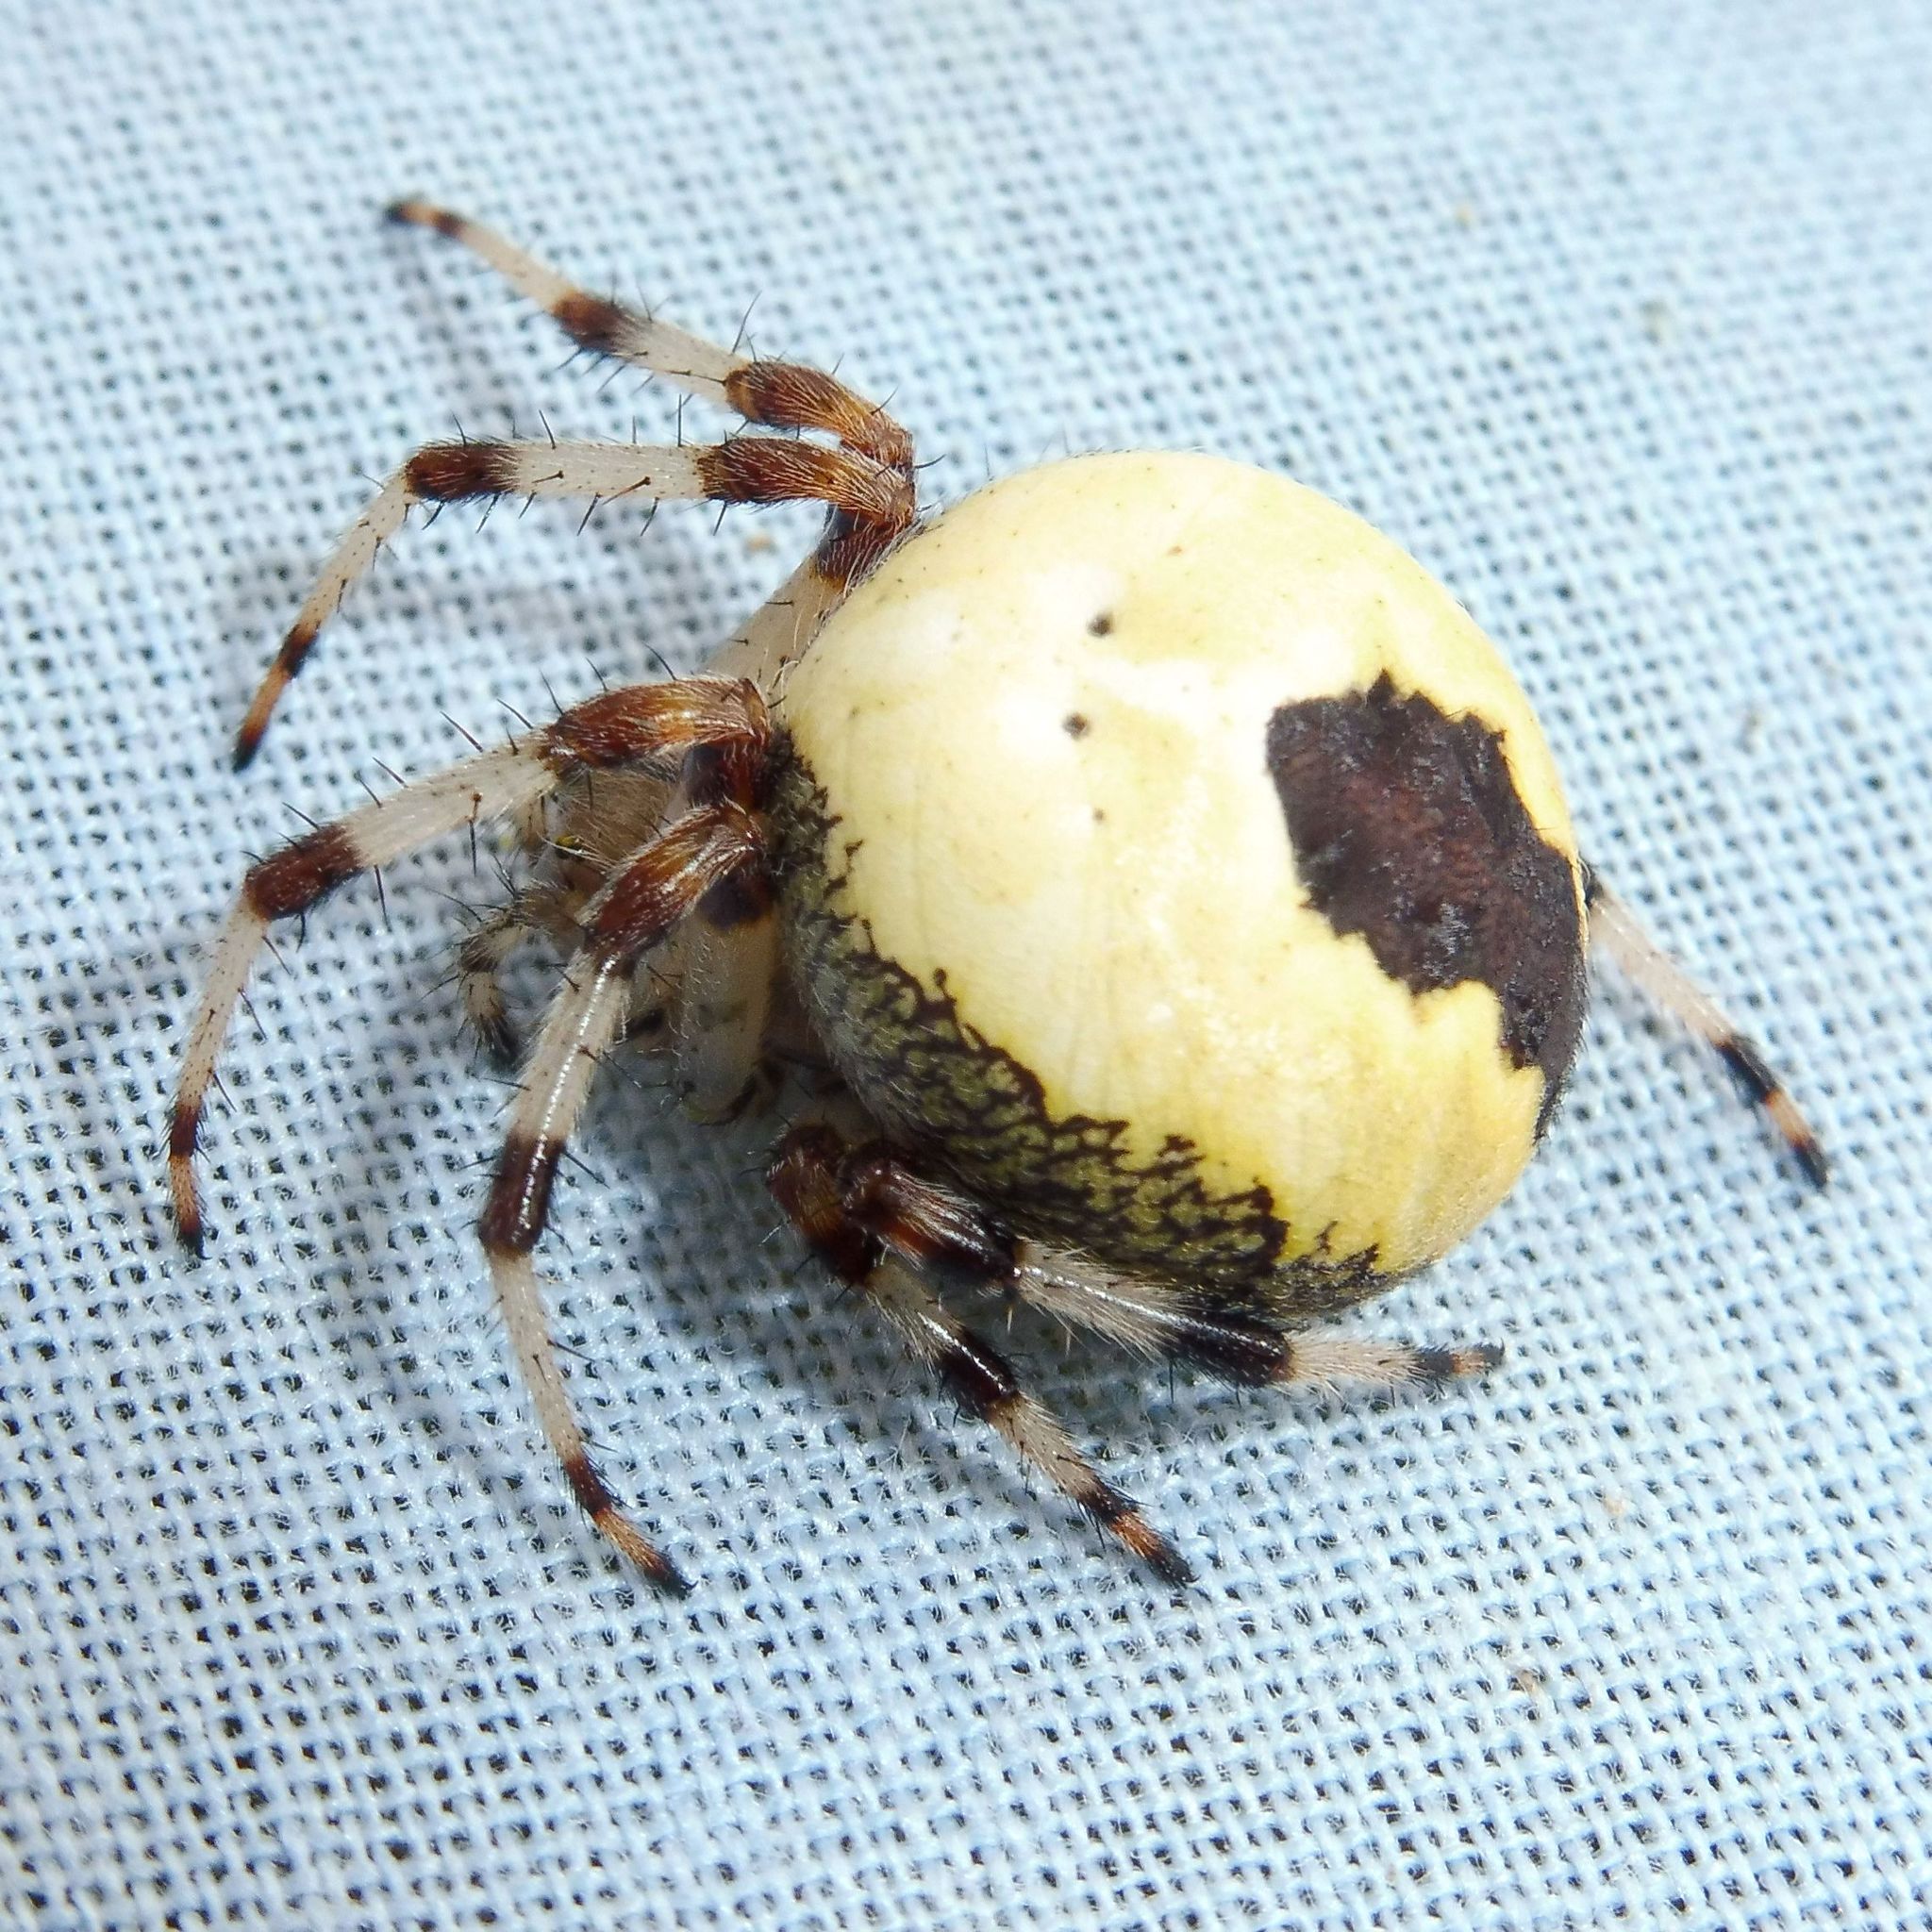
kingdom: Animalia
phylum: Arthropoda
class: Arachnida
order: Araneae
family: Araneidae
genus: Araneus
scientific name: Araneus marmoreus
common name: Marbled orbweaver
